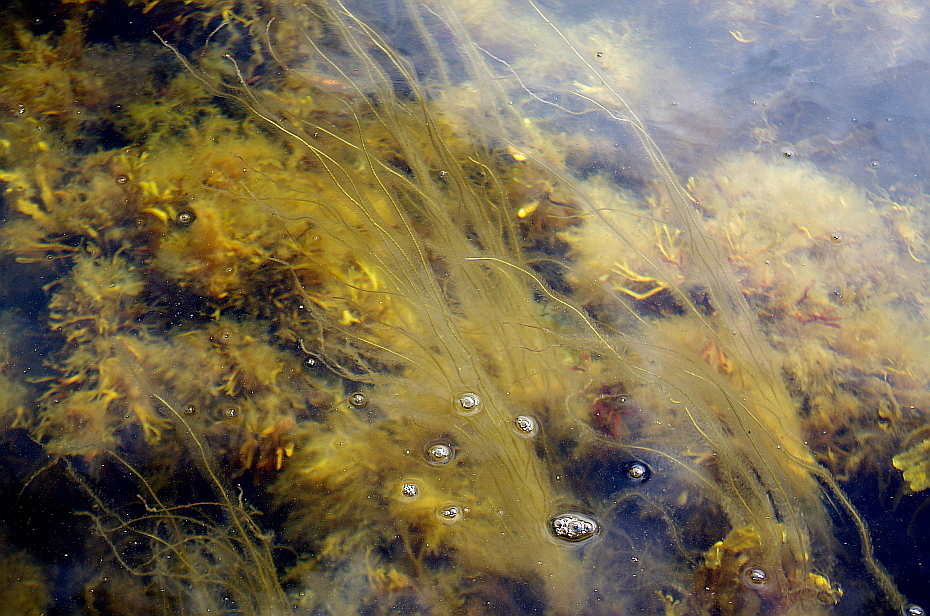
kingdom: Chromista
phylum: Ochrophyta
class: Phaeophyceae
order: Tilopteridales
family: Halosiphonaceae
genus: Halosiphon
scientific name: Halosiphon tomentosus
